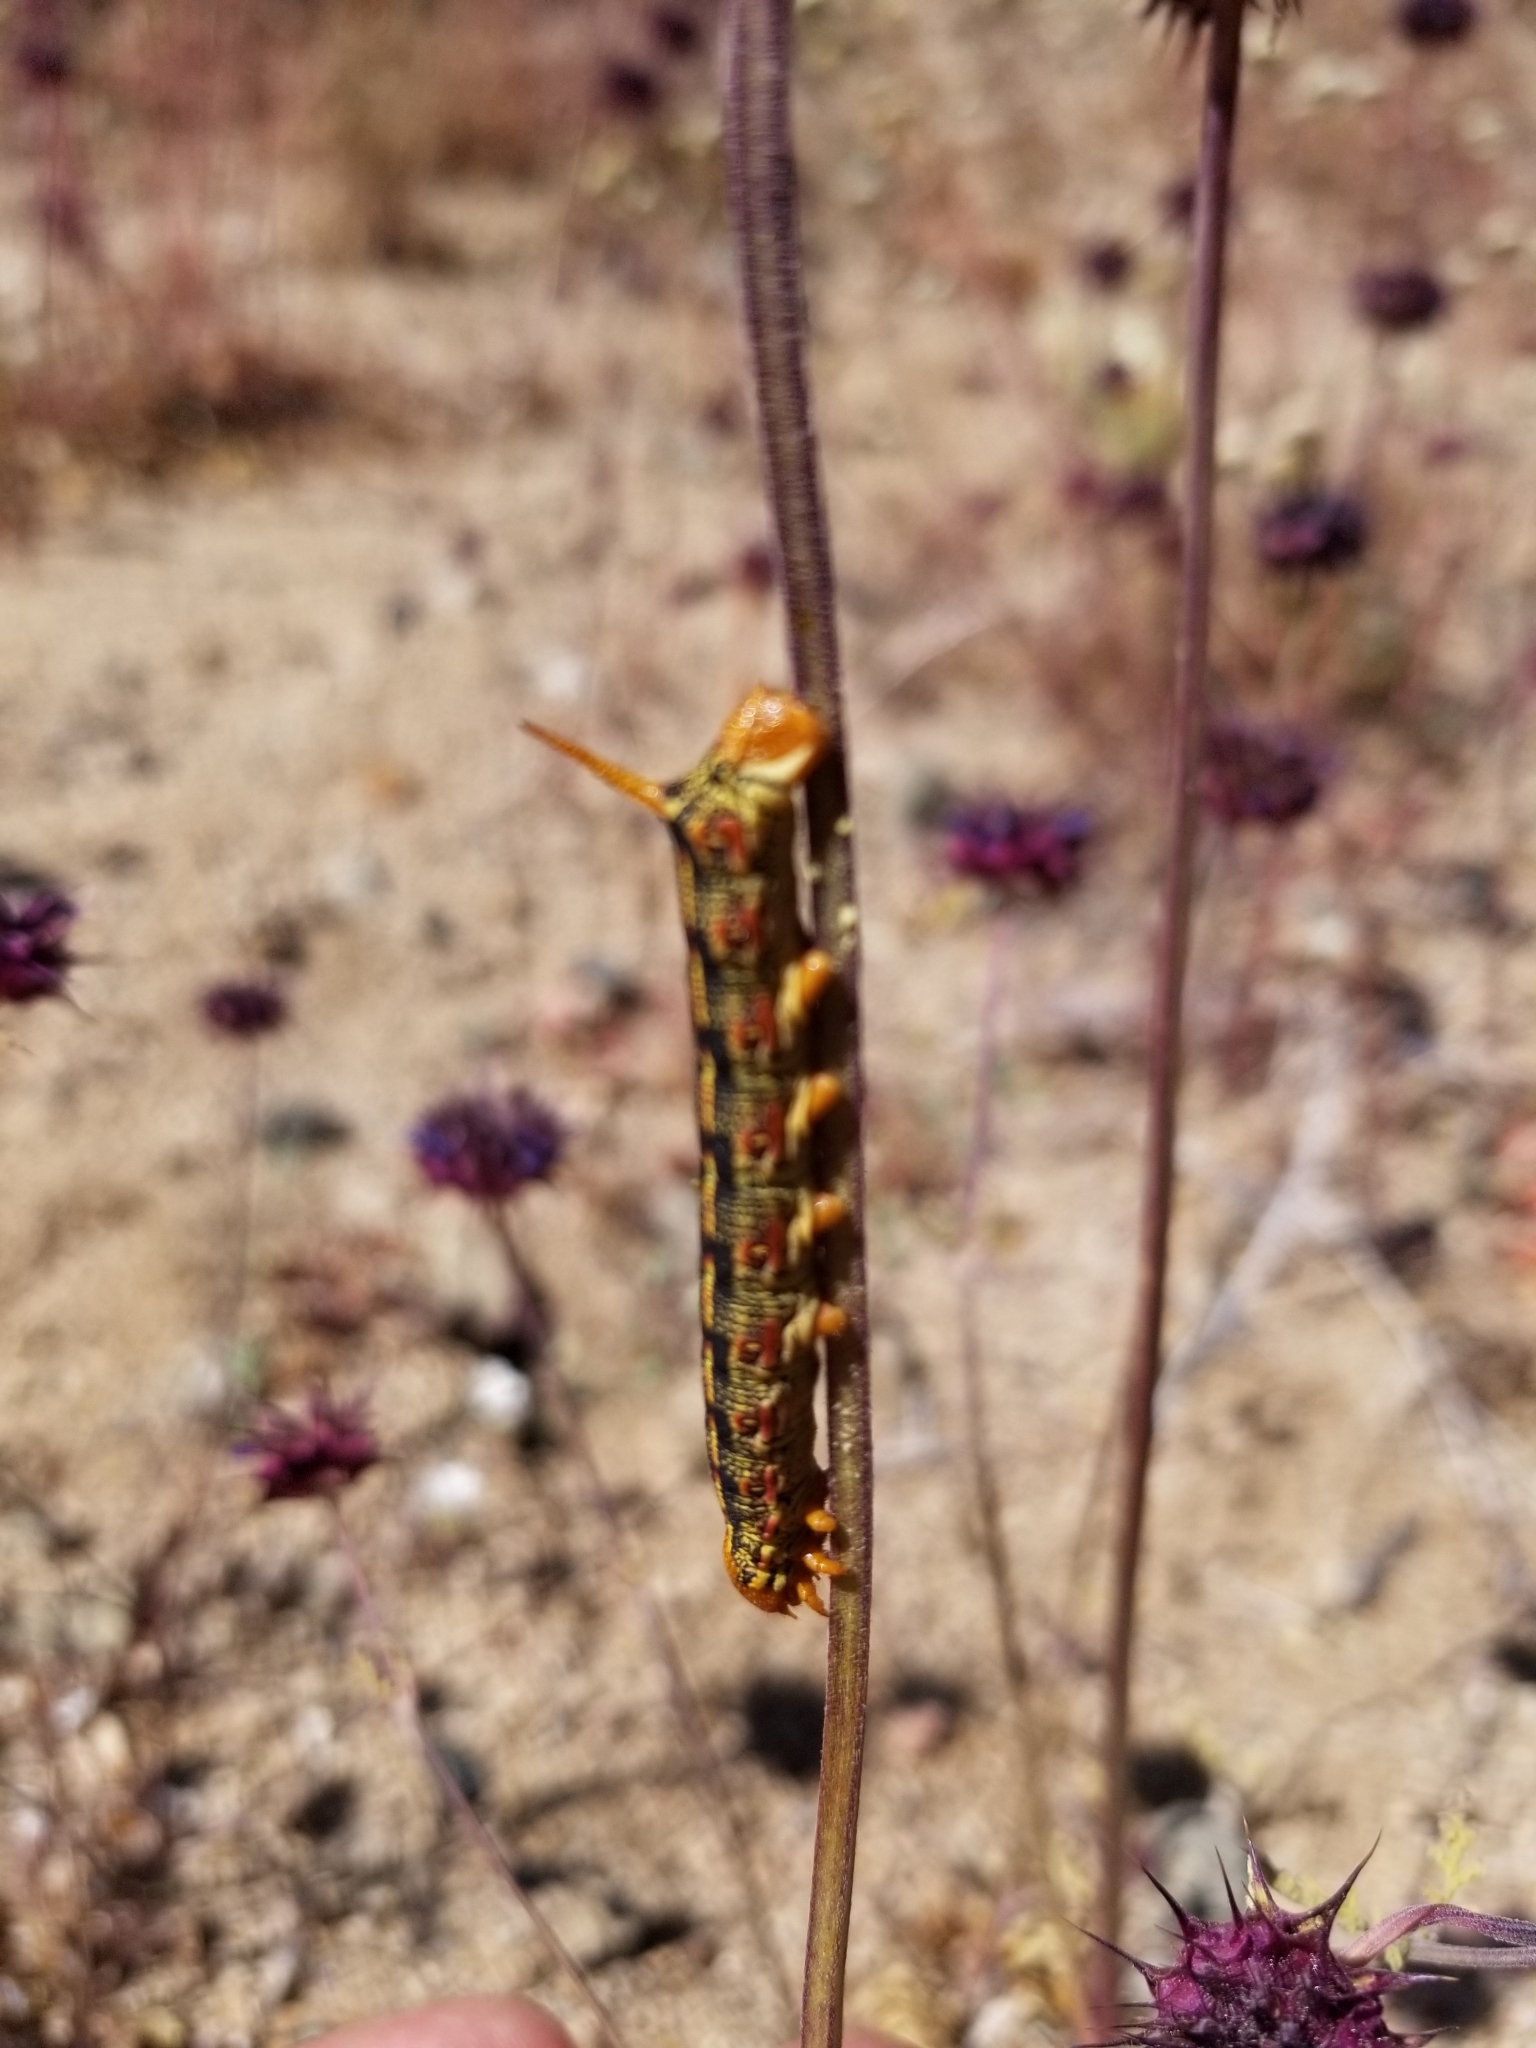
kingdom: Animalia
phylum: Arthropoda
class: Insecta
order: Lepidoptera
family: Sphingidae
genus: Hyles
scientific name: Hyles lineata
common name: White-lined sphinx
